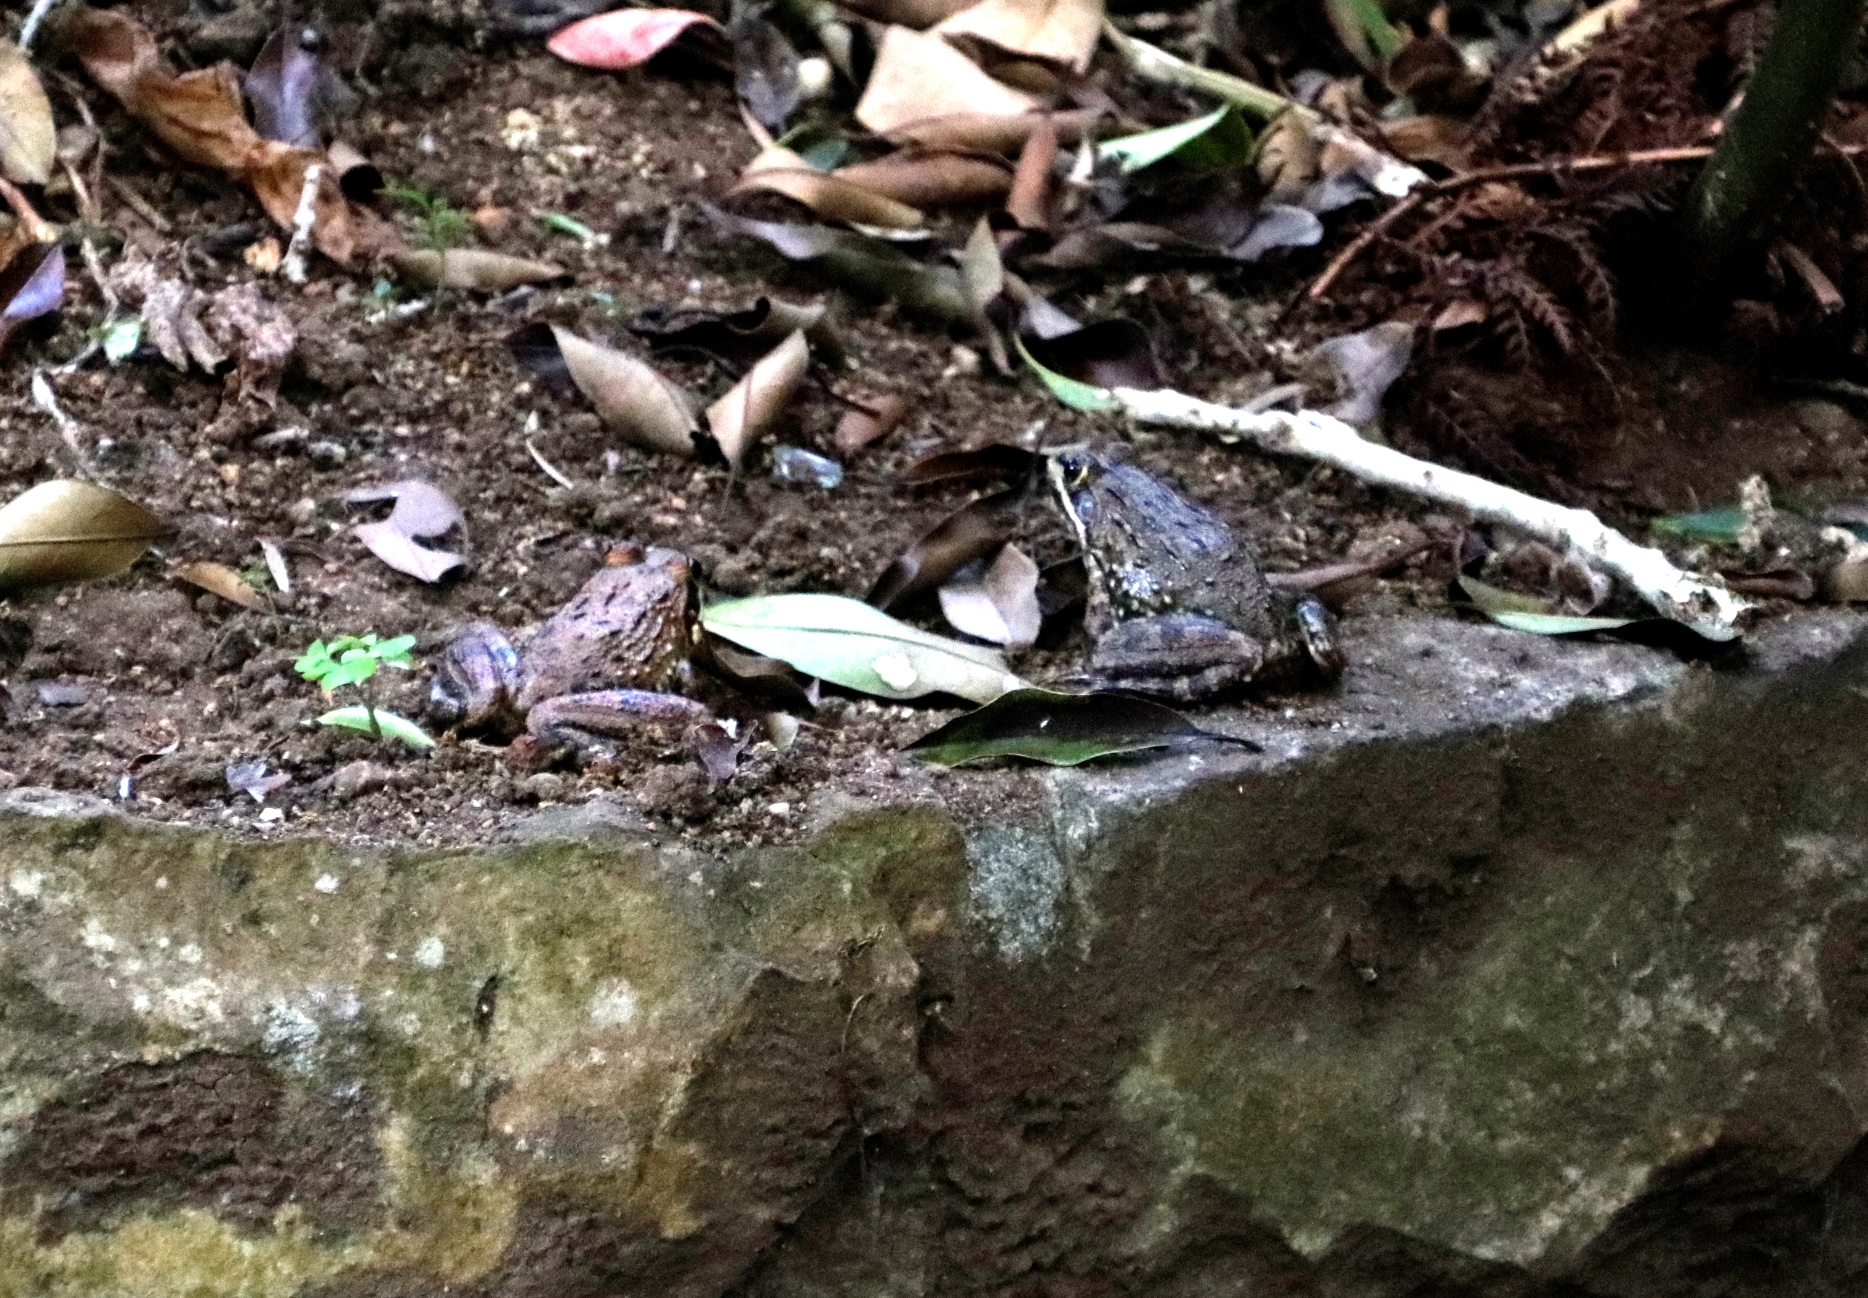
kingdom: Animalia
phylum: Chordata
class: Amphibia
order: Anura
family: Pyxicephalidae
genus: Amietia
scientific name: Amietia fuscigula
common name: Cape rana
